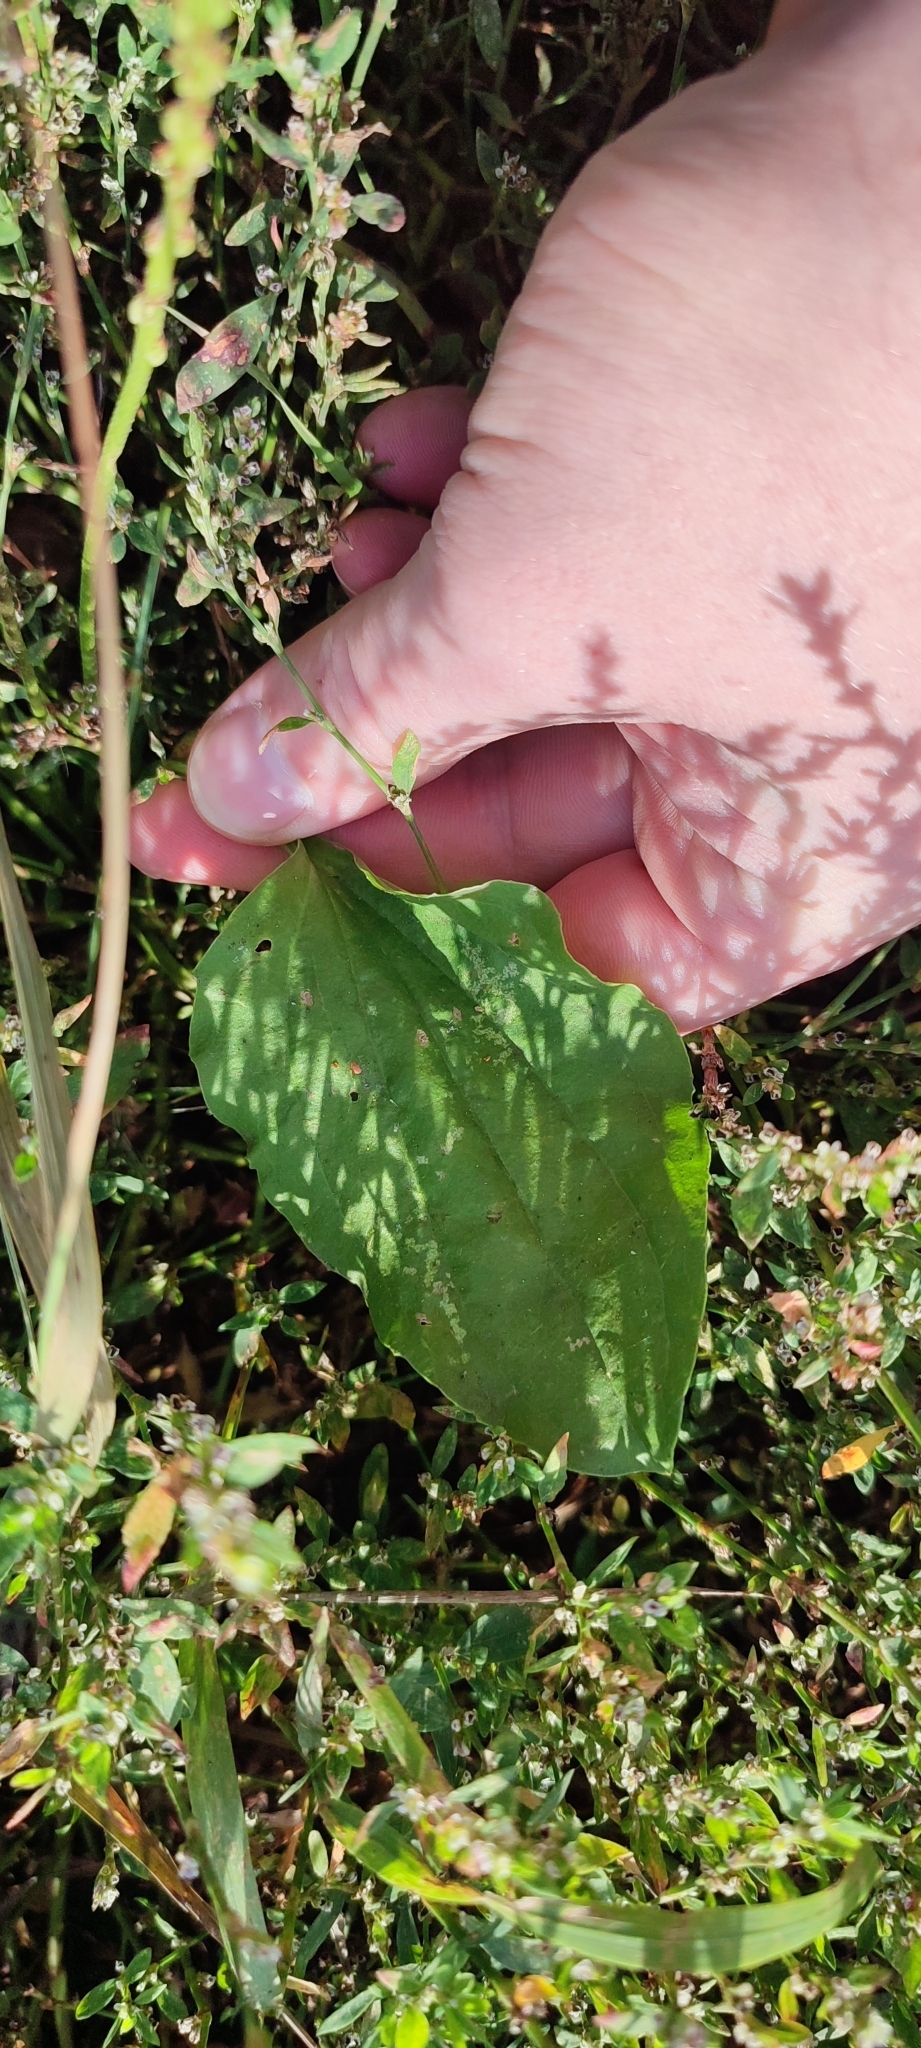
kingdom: Plantae
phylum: Tracheophyta
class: Magnoliopsida
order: Lamiales
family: Plantaginaceae
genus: Plantago
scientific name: Plantago major
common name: Common plantain
